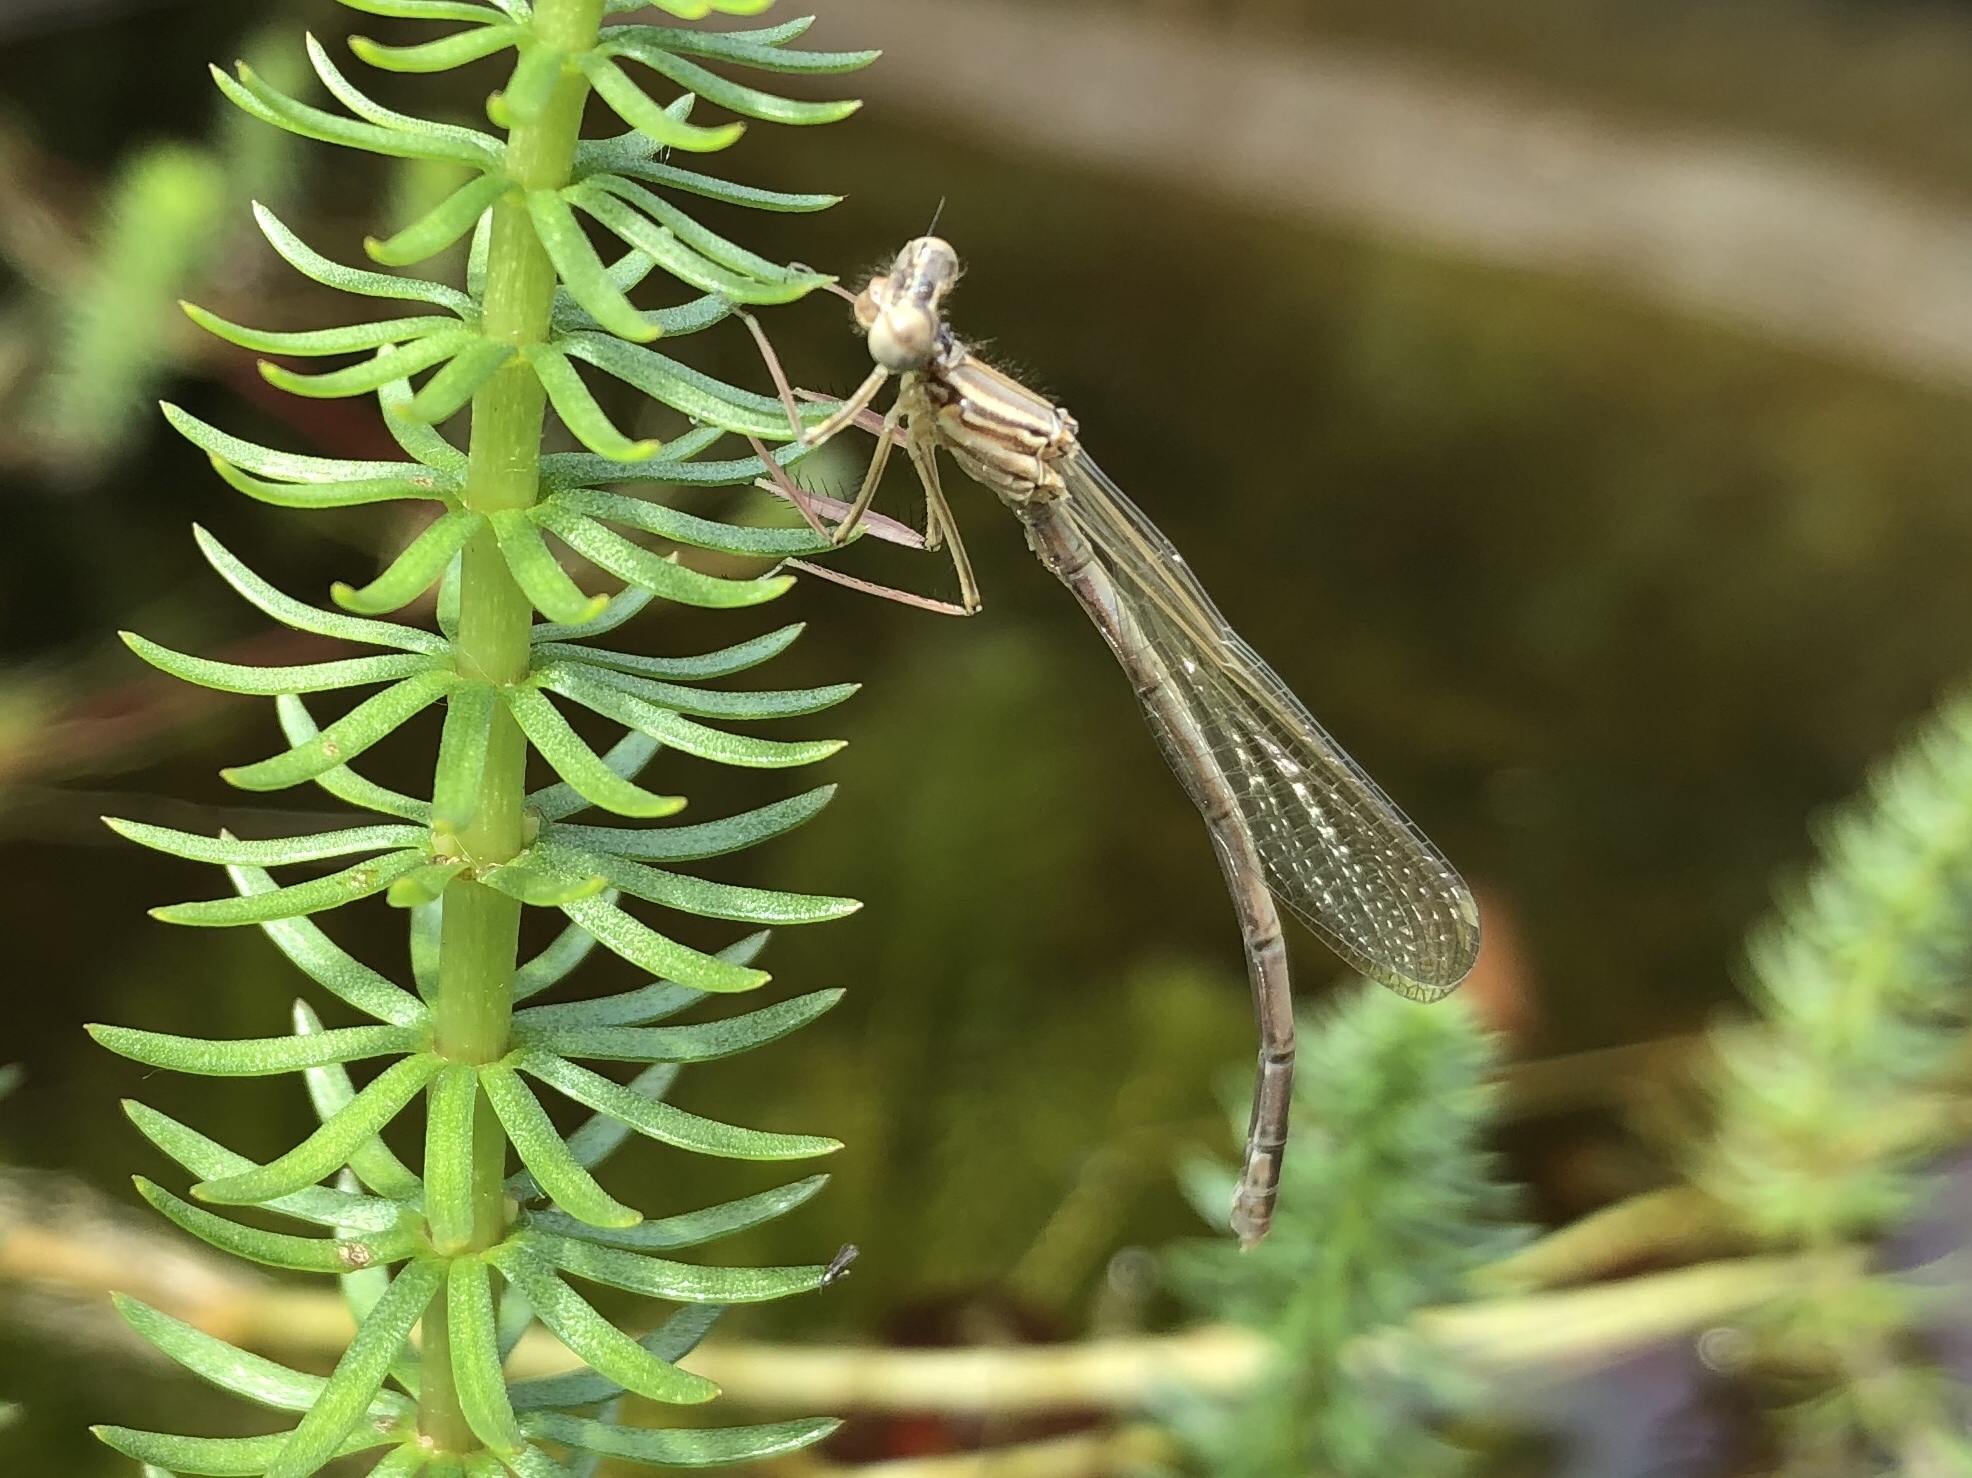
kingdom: Animalia
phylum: Arthropoda
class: Insecta
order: Odonata
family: Platycnemididae
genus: Platycnemis
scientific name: Platycnemis pennipes
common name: White-legged damselfly
